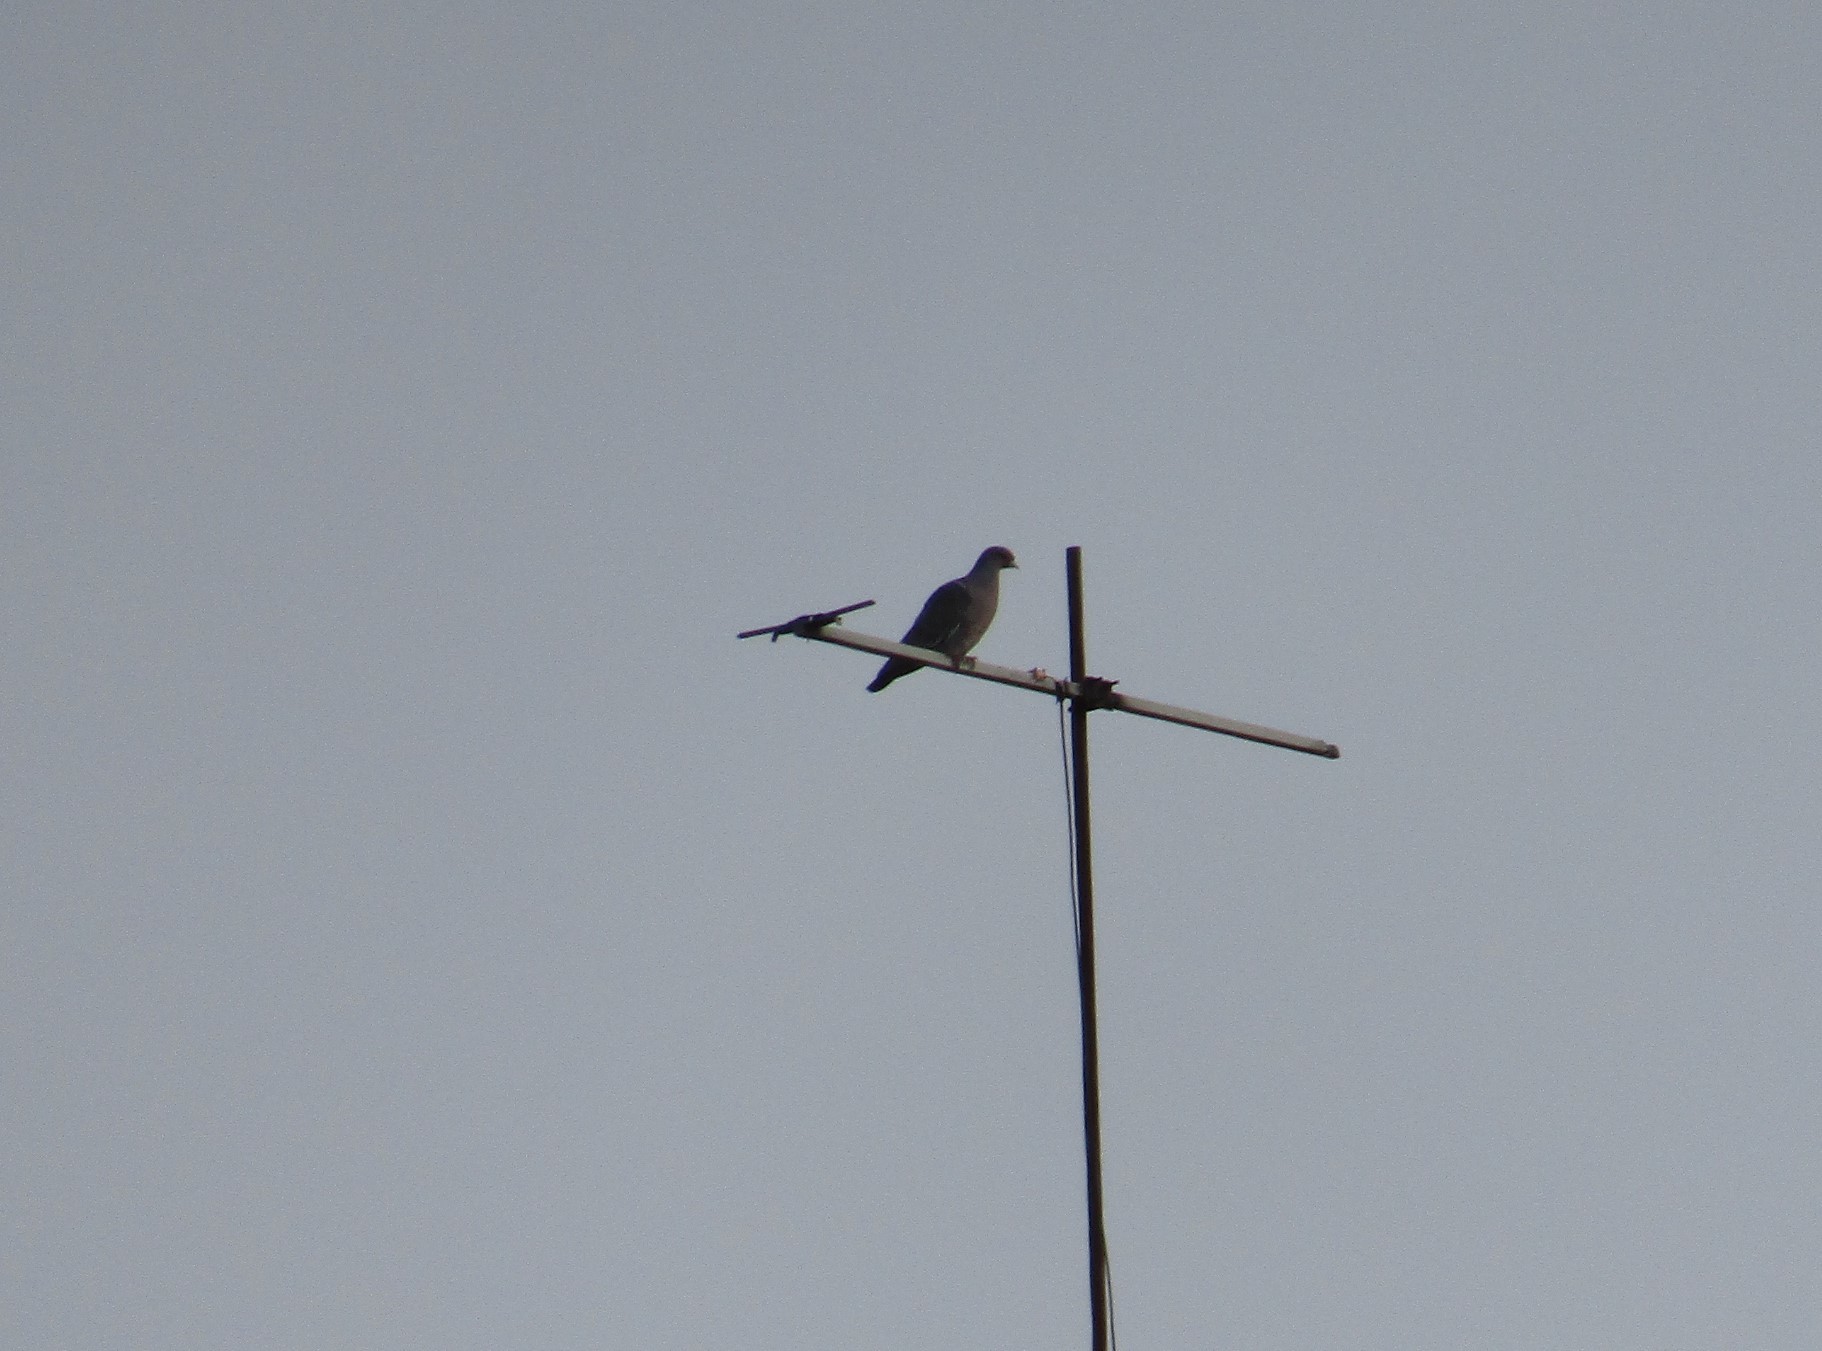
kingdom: Animalia
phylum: Chordata
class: Aves
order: Columbiformes
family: Columbidae
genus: Patagioenas
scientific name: Patagioenas picazuro
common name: Picazuro pigeon
